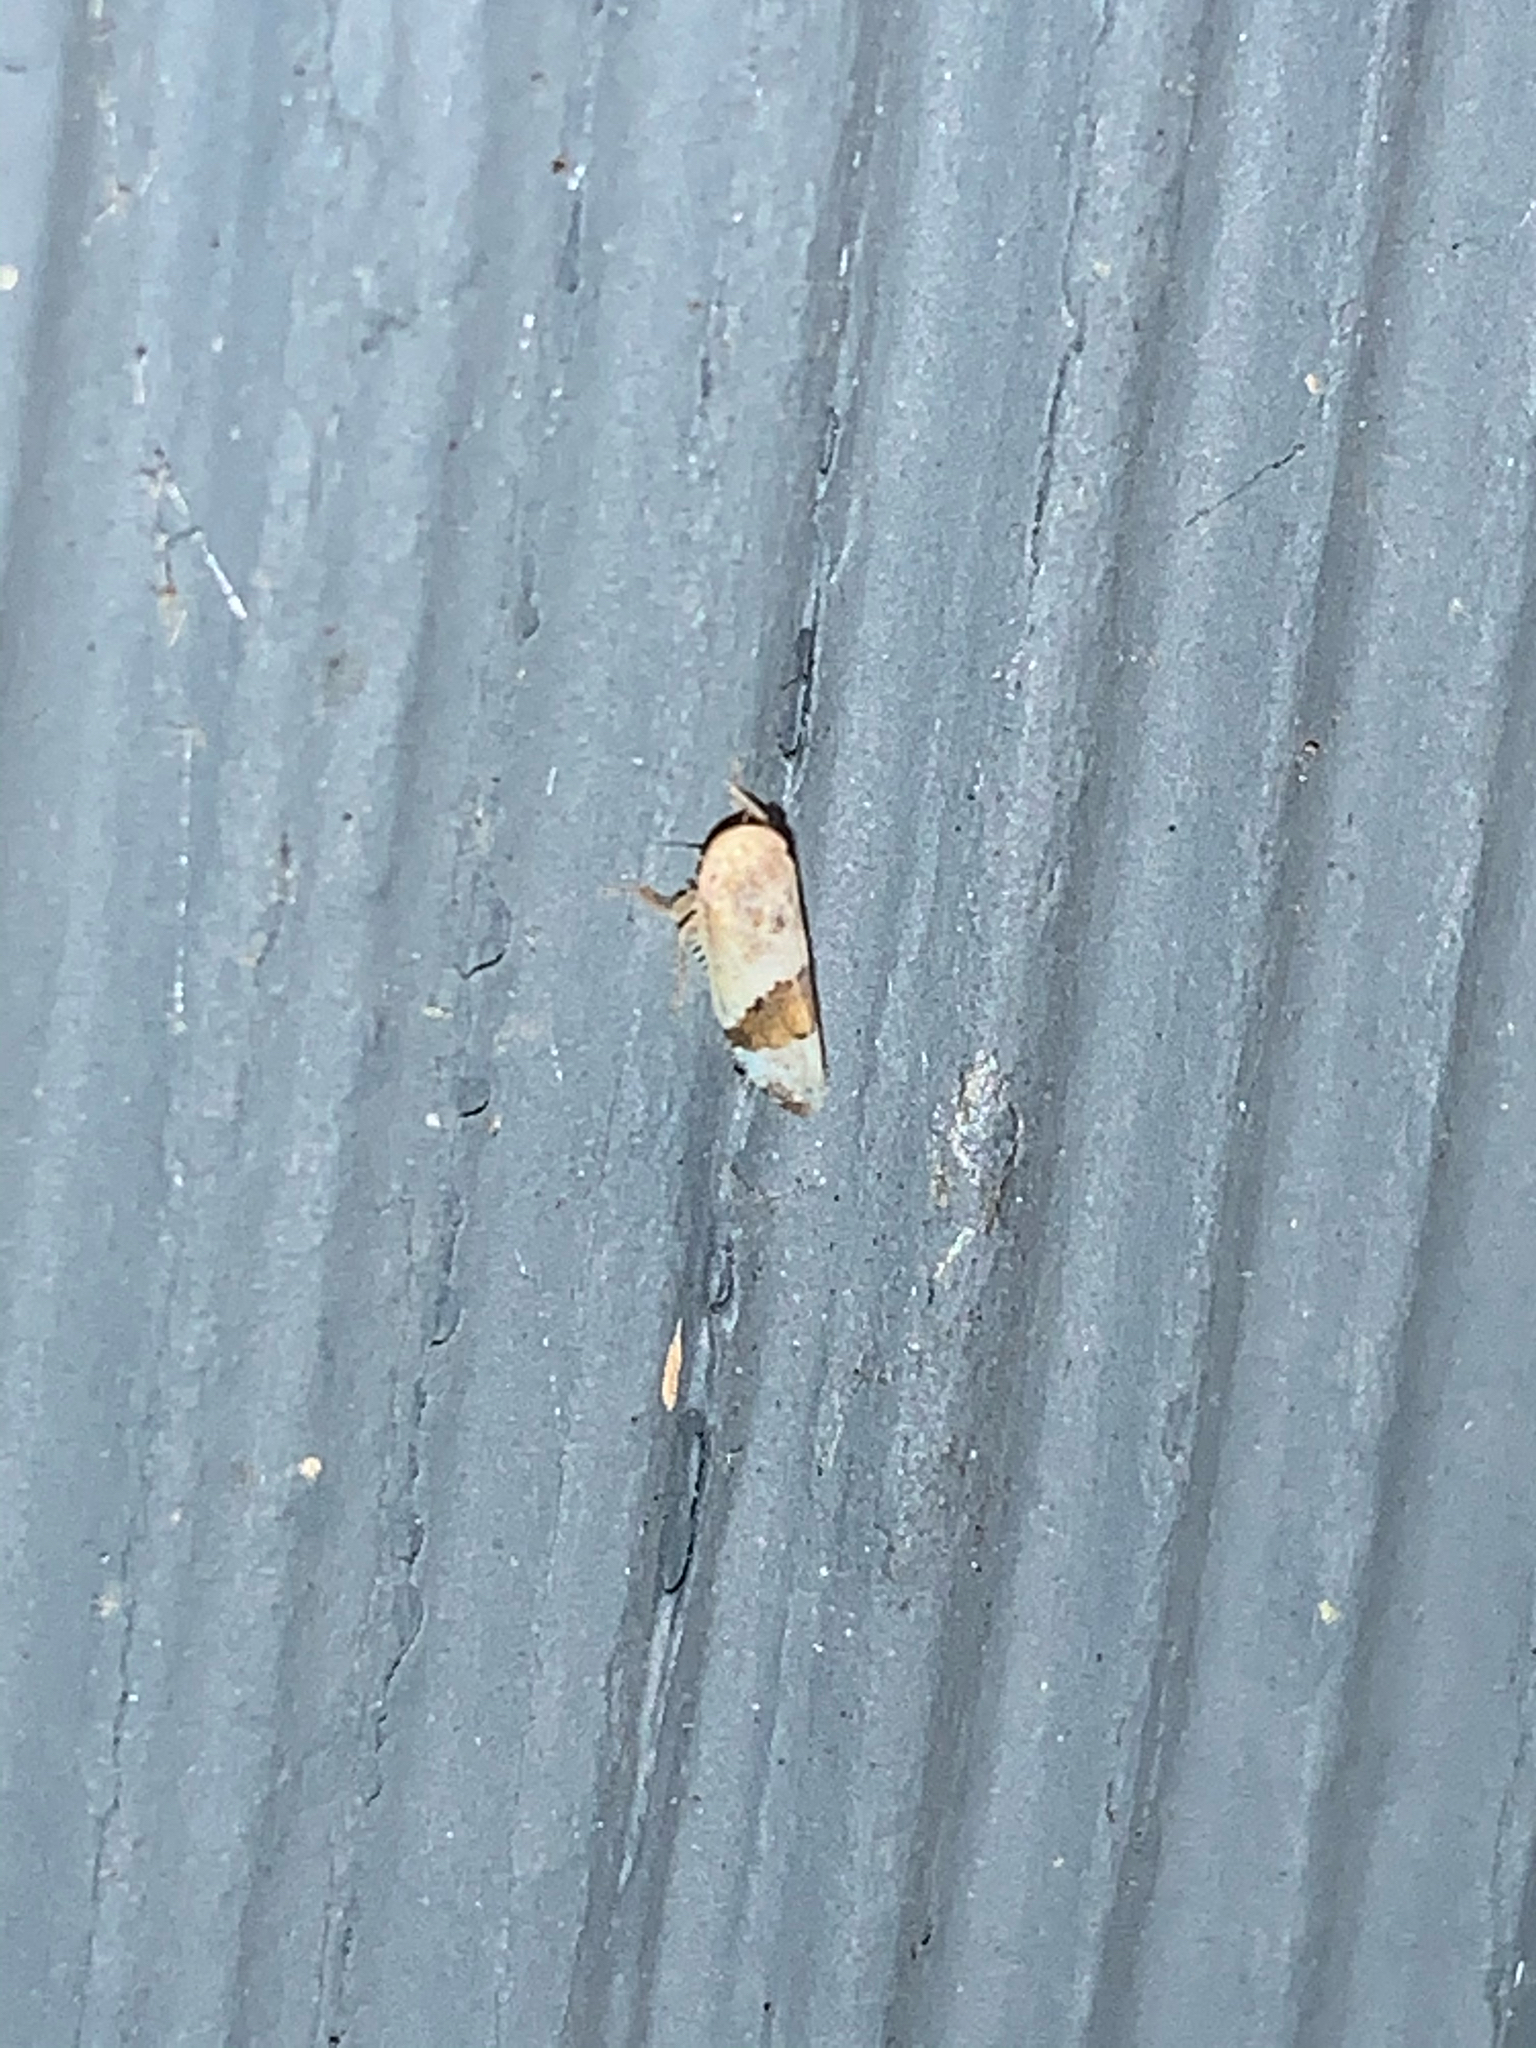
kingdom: Animalia
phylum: Arthropoda
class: Insecta
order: Hemiptera
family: Cicadellidae
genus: Norvellina
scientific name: Norvellina seminuda
